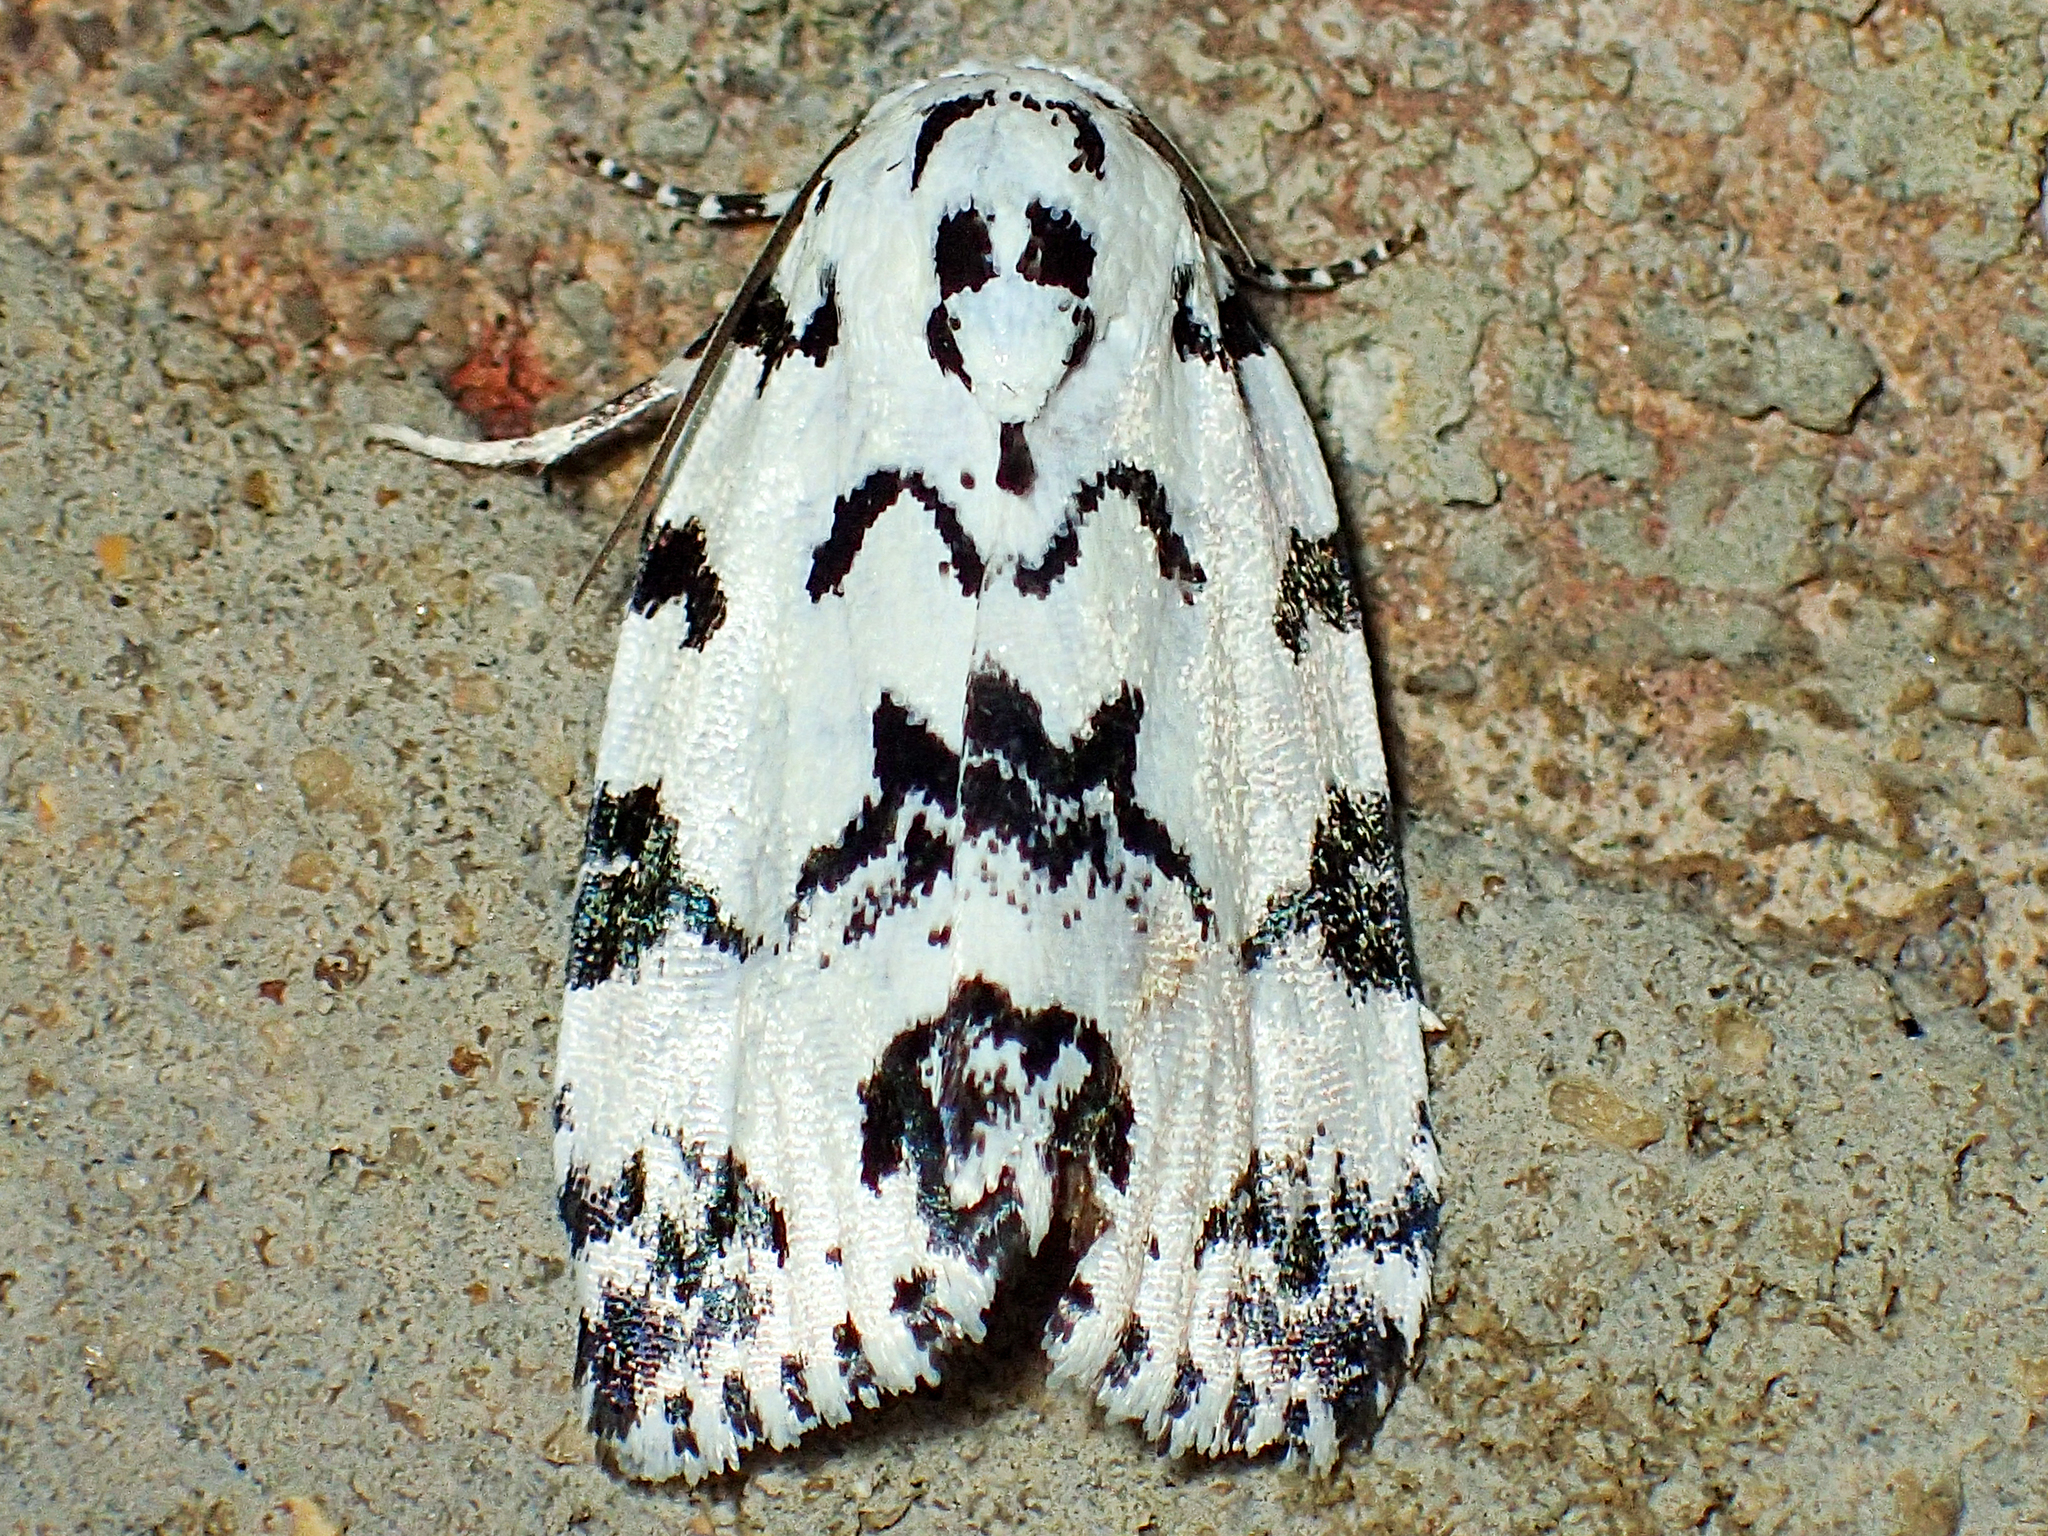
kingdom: Animalia
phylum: Arthropoda
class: Insecta
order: Lepidoptera
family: Noctuidae
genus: Polygrammate
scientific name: Polygrammate hebraeicum
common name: Hebrew moth
